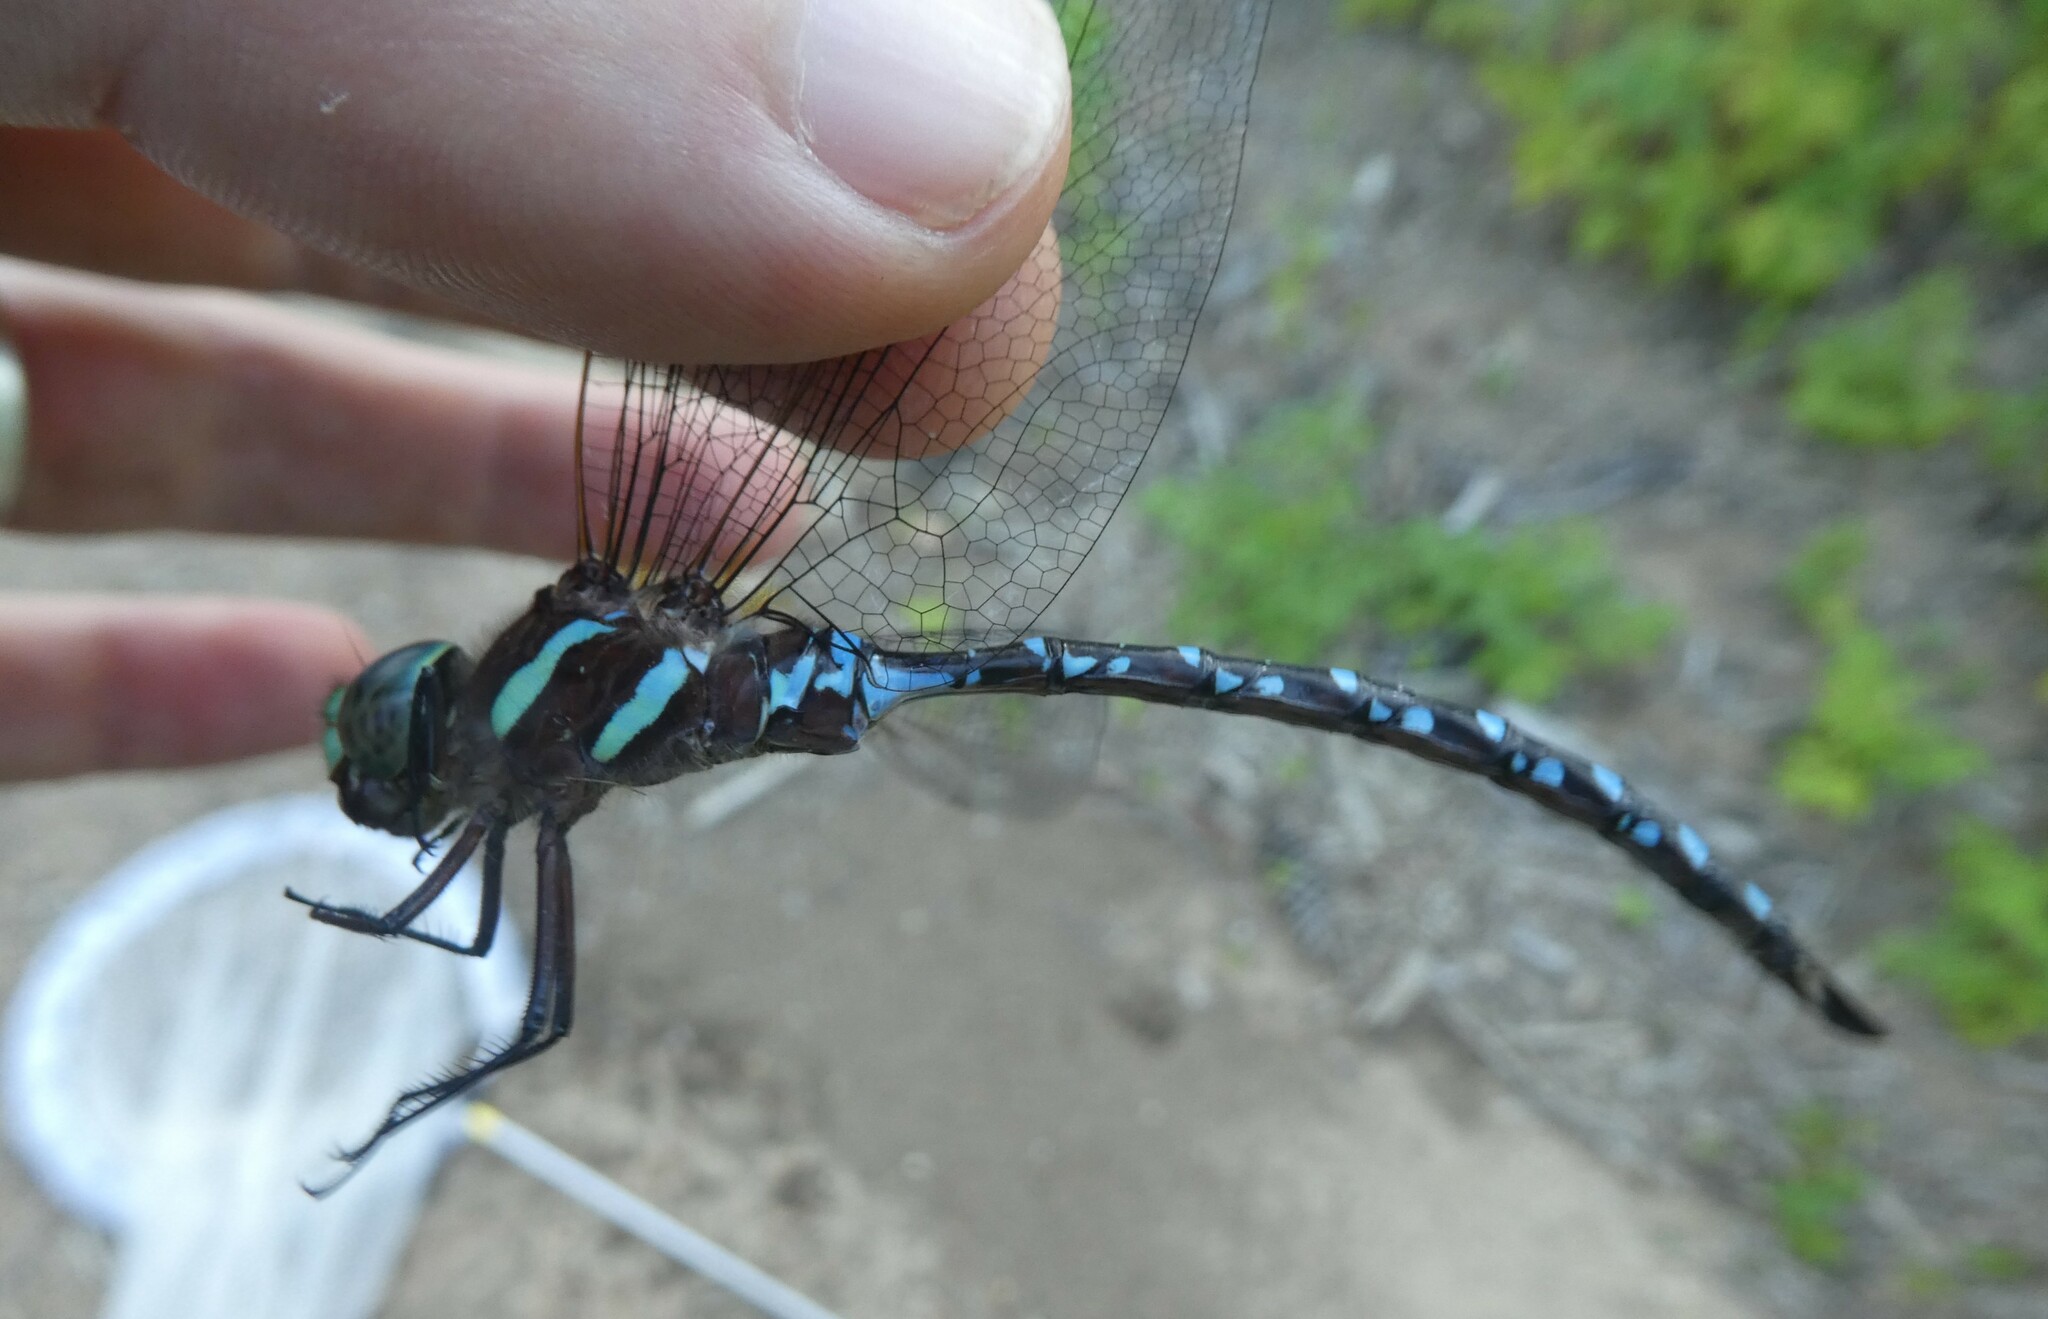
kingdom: Animalia
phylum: Arthropoda
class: Insecta
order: Odonata
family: Aeshnidae
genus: Aeshna
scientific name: Aeshna tuberculifera
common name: Aeschne à tubercules
